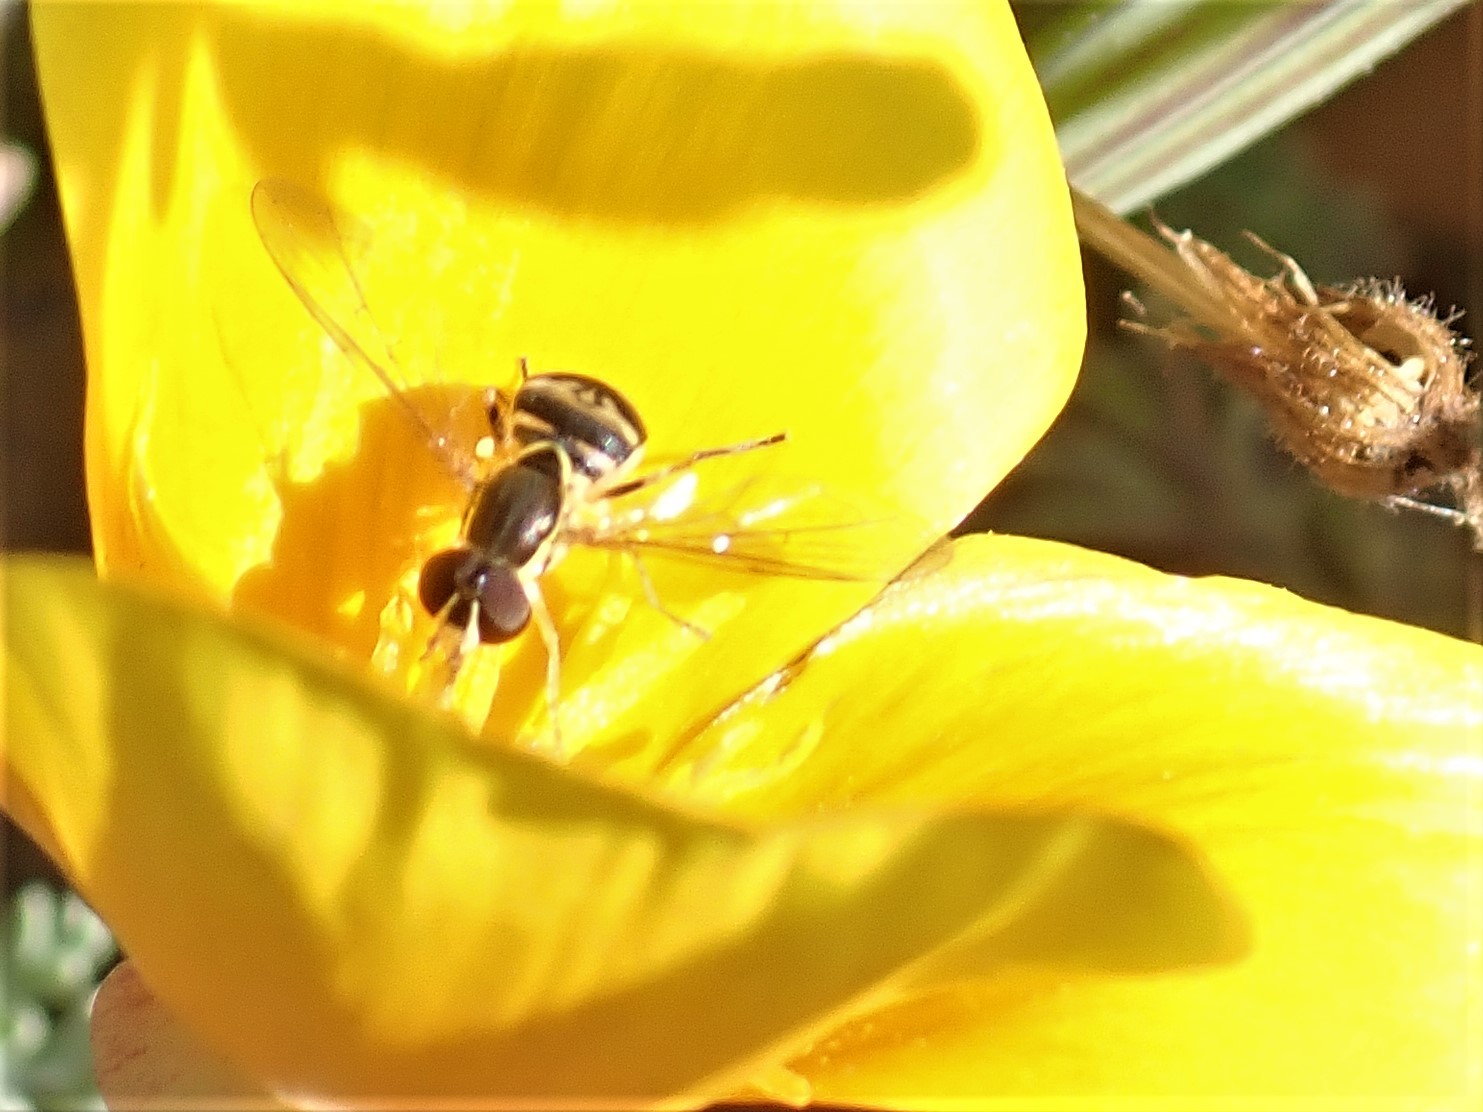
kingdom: Animalia
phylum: Arthropoda
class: Insecta
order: Diptera
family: Syrphidae
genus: Toxomerus
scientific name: Toxomerus occidentalis
